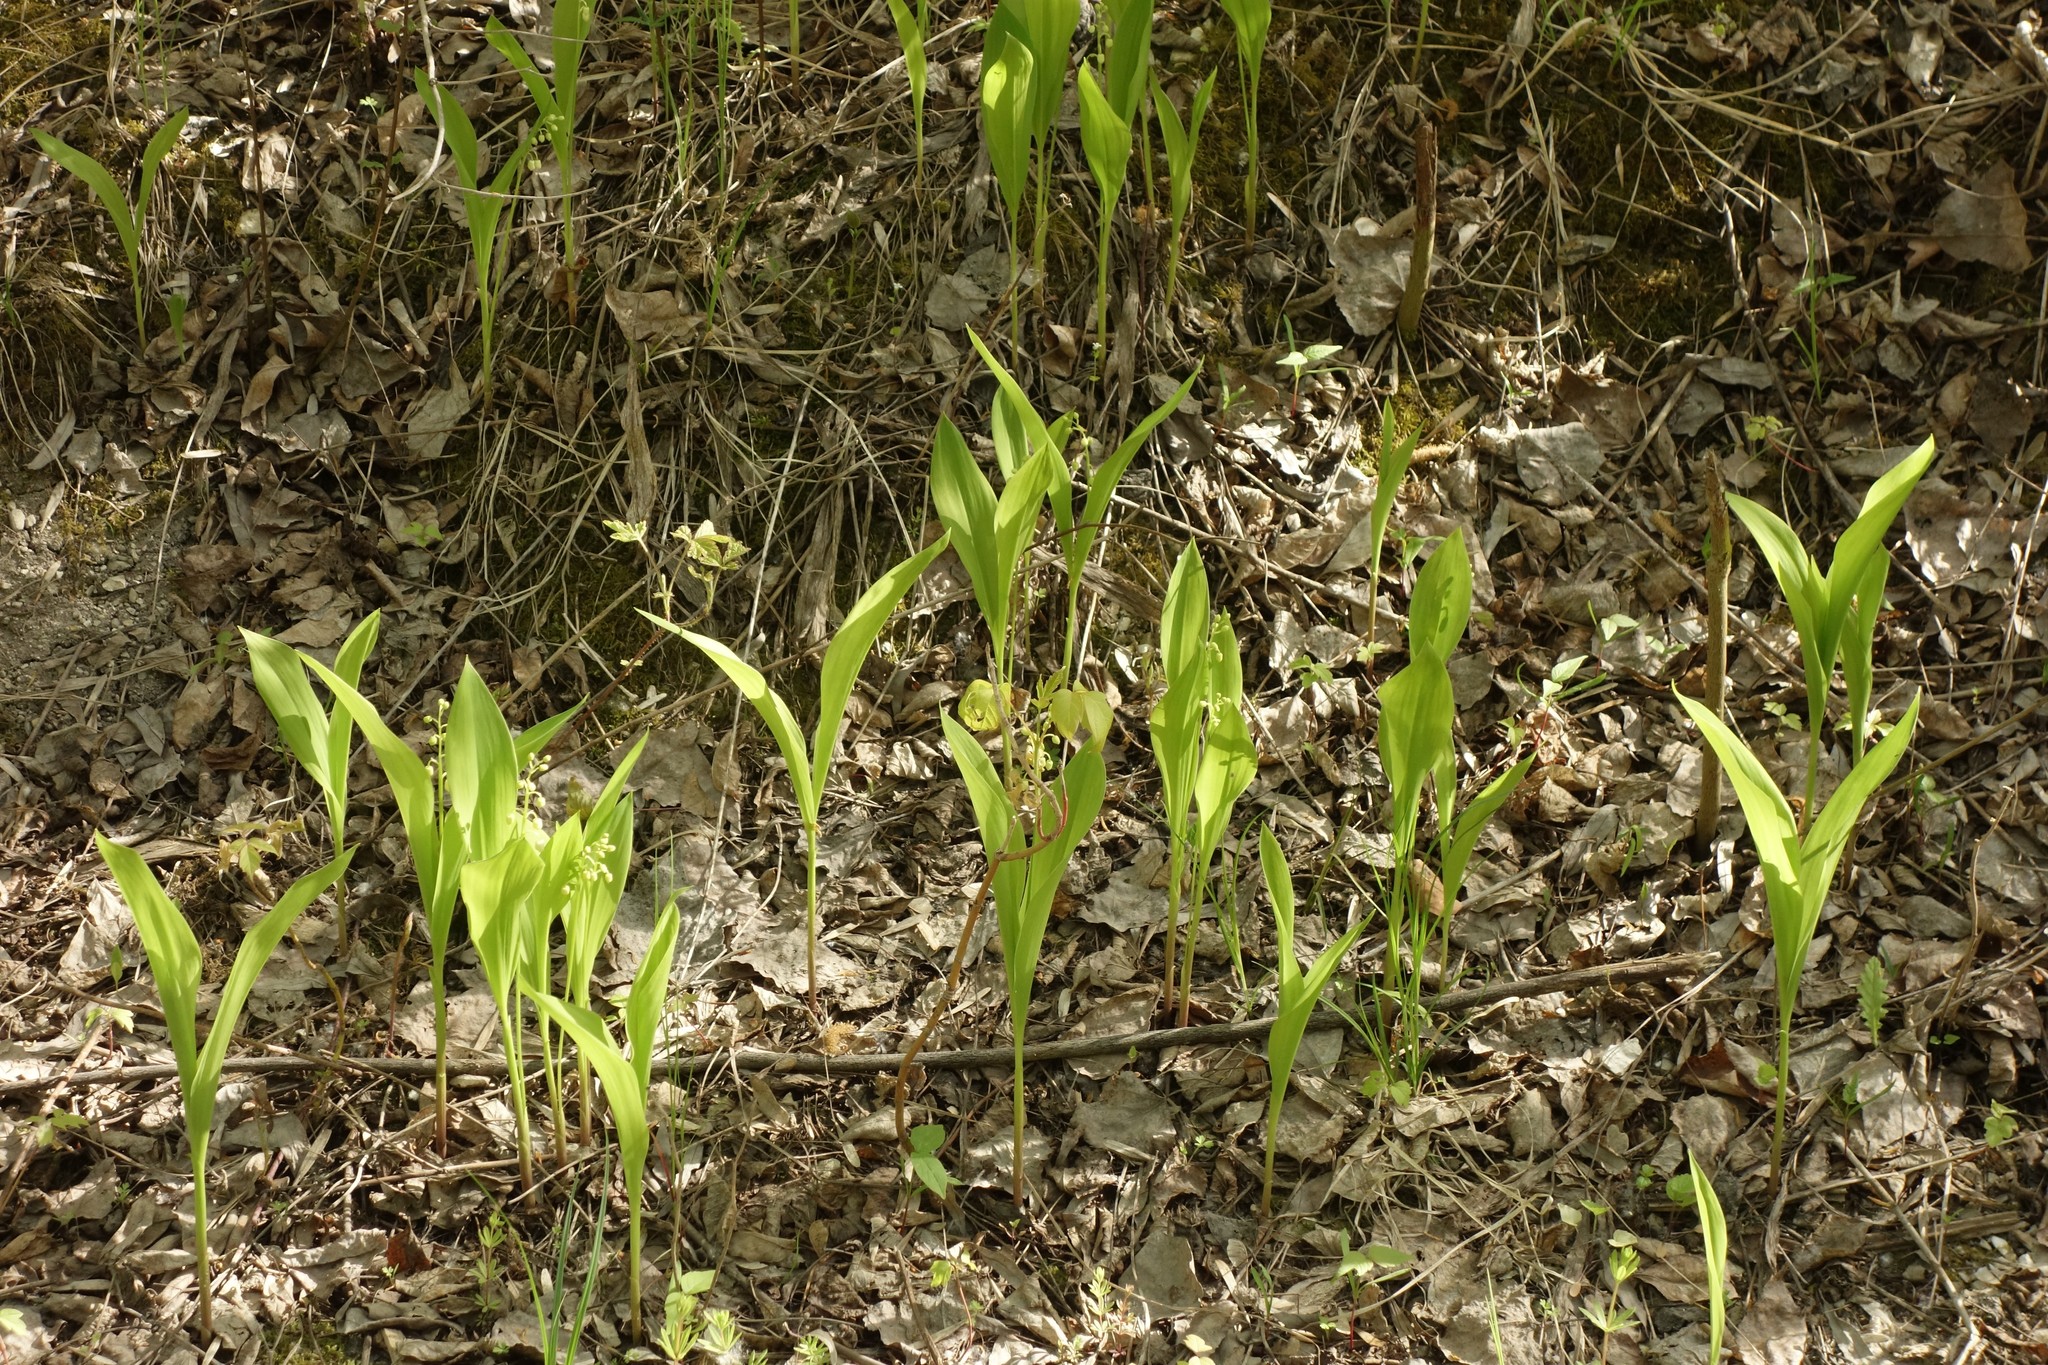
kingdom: Plantae
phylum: Tracheophyta
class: Liliopsida
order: Asparagales
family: Asparagaceae
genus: Convallaria
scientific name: Convallaria majalis
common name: Lily-of-the-valley
